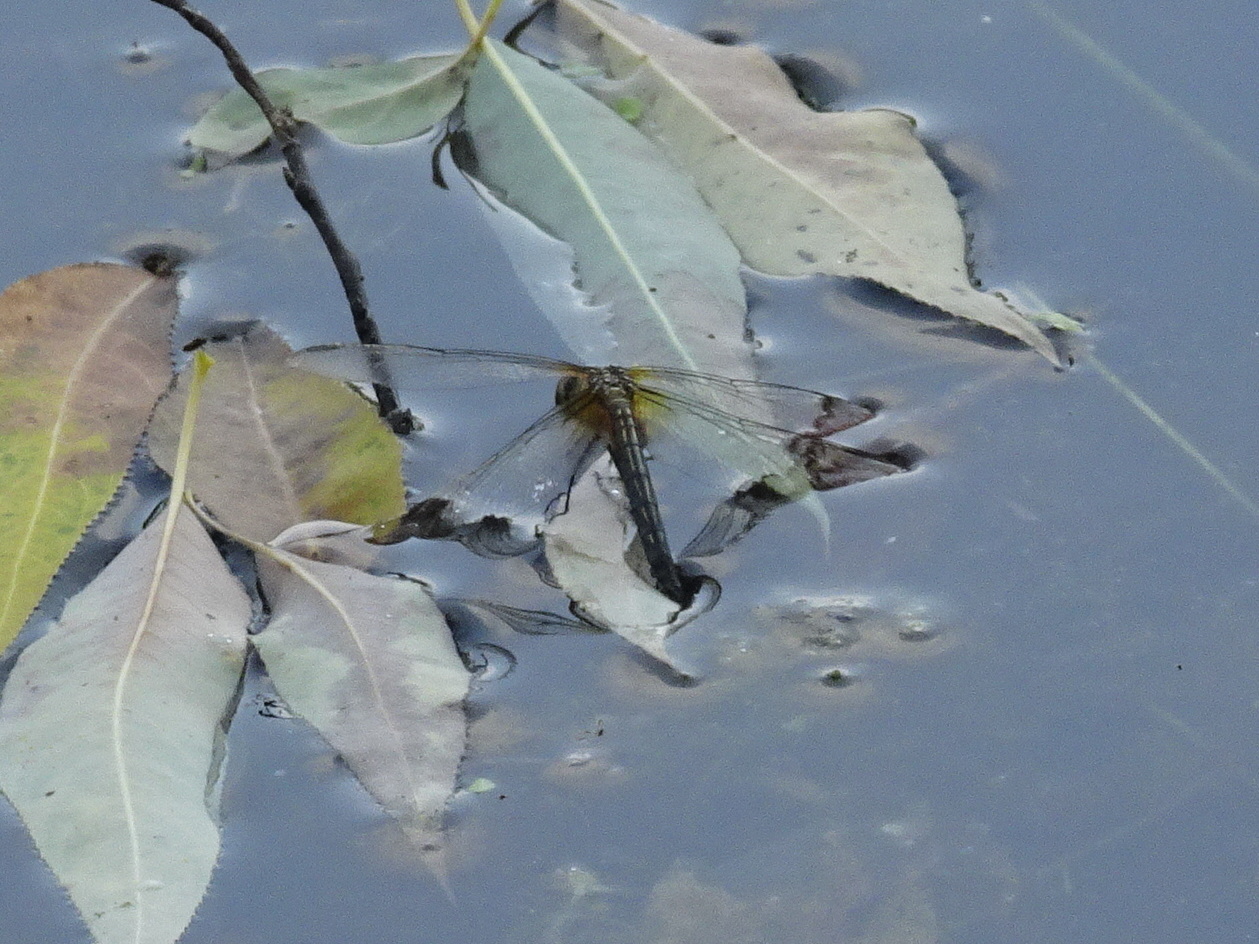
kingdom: Animalia
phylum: Arthropoda
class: Insecta
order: Odonata
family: Libellulidae
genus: Pachydiplax
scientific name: Pachydiplax longipennis
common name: Blue dasher
